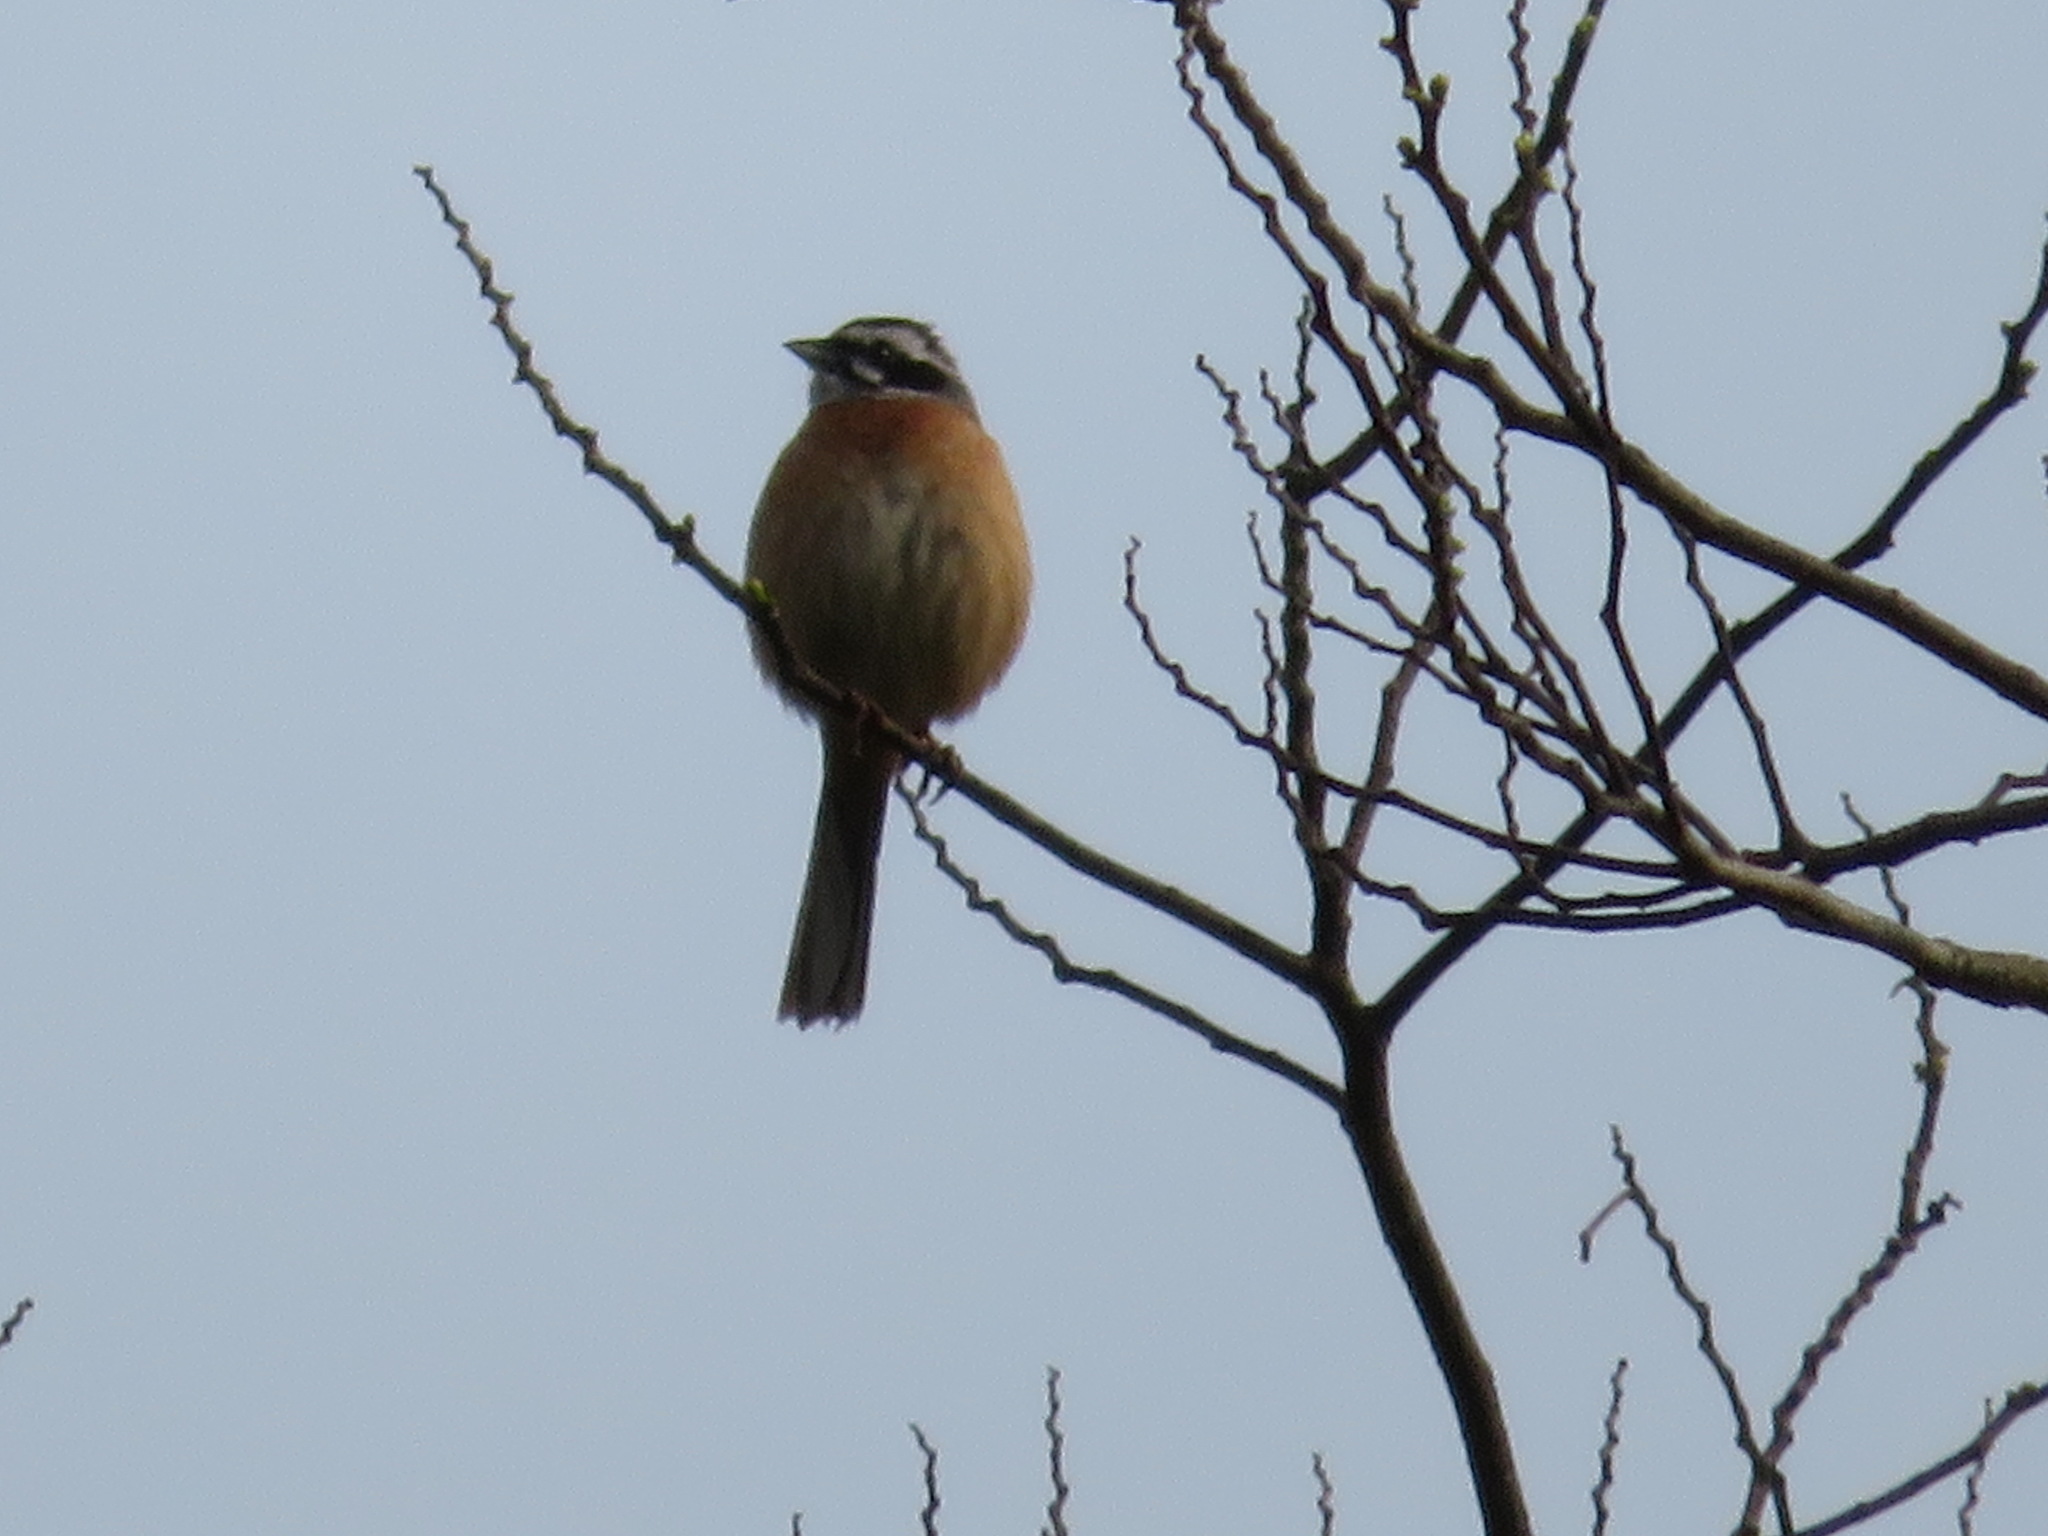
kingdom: Animalia
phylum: Chordata
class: Aves
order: Passeriformes
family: Emberizidae
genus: Emberiza
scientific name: Emberiza cioides
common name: Meadow bunting
